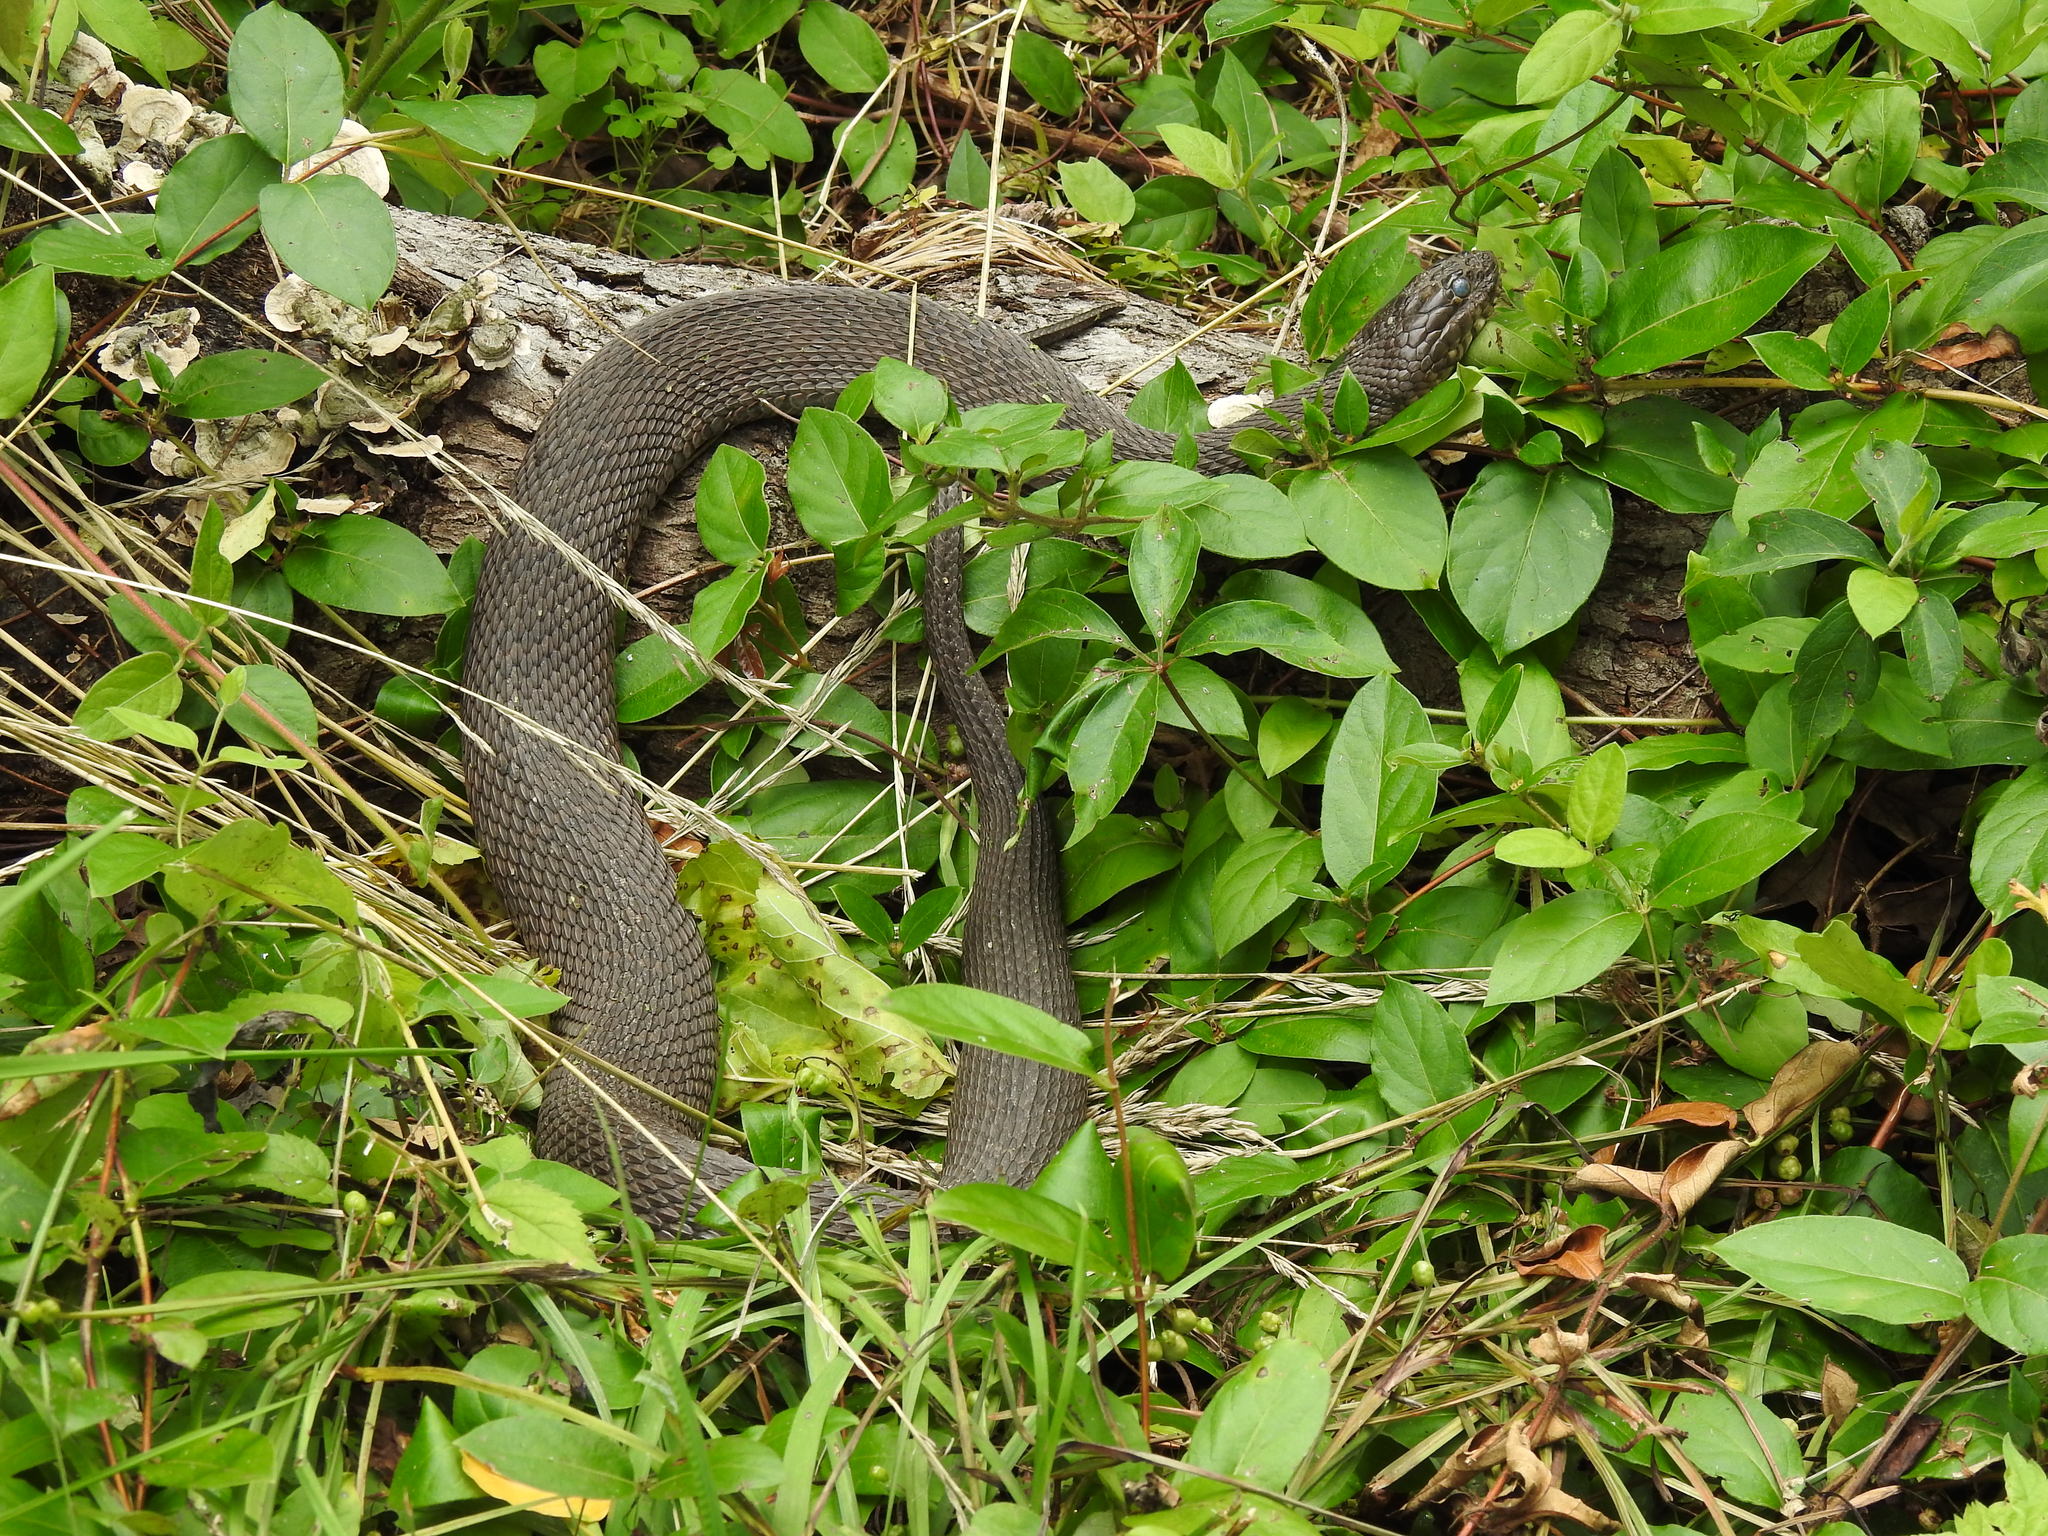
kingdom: Animalia
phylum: Chordata
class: Squamata
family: Colubridae
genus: Nerodia
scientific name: Nerodia sipedon
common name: Northern water snake
